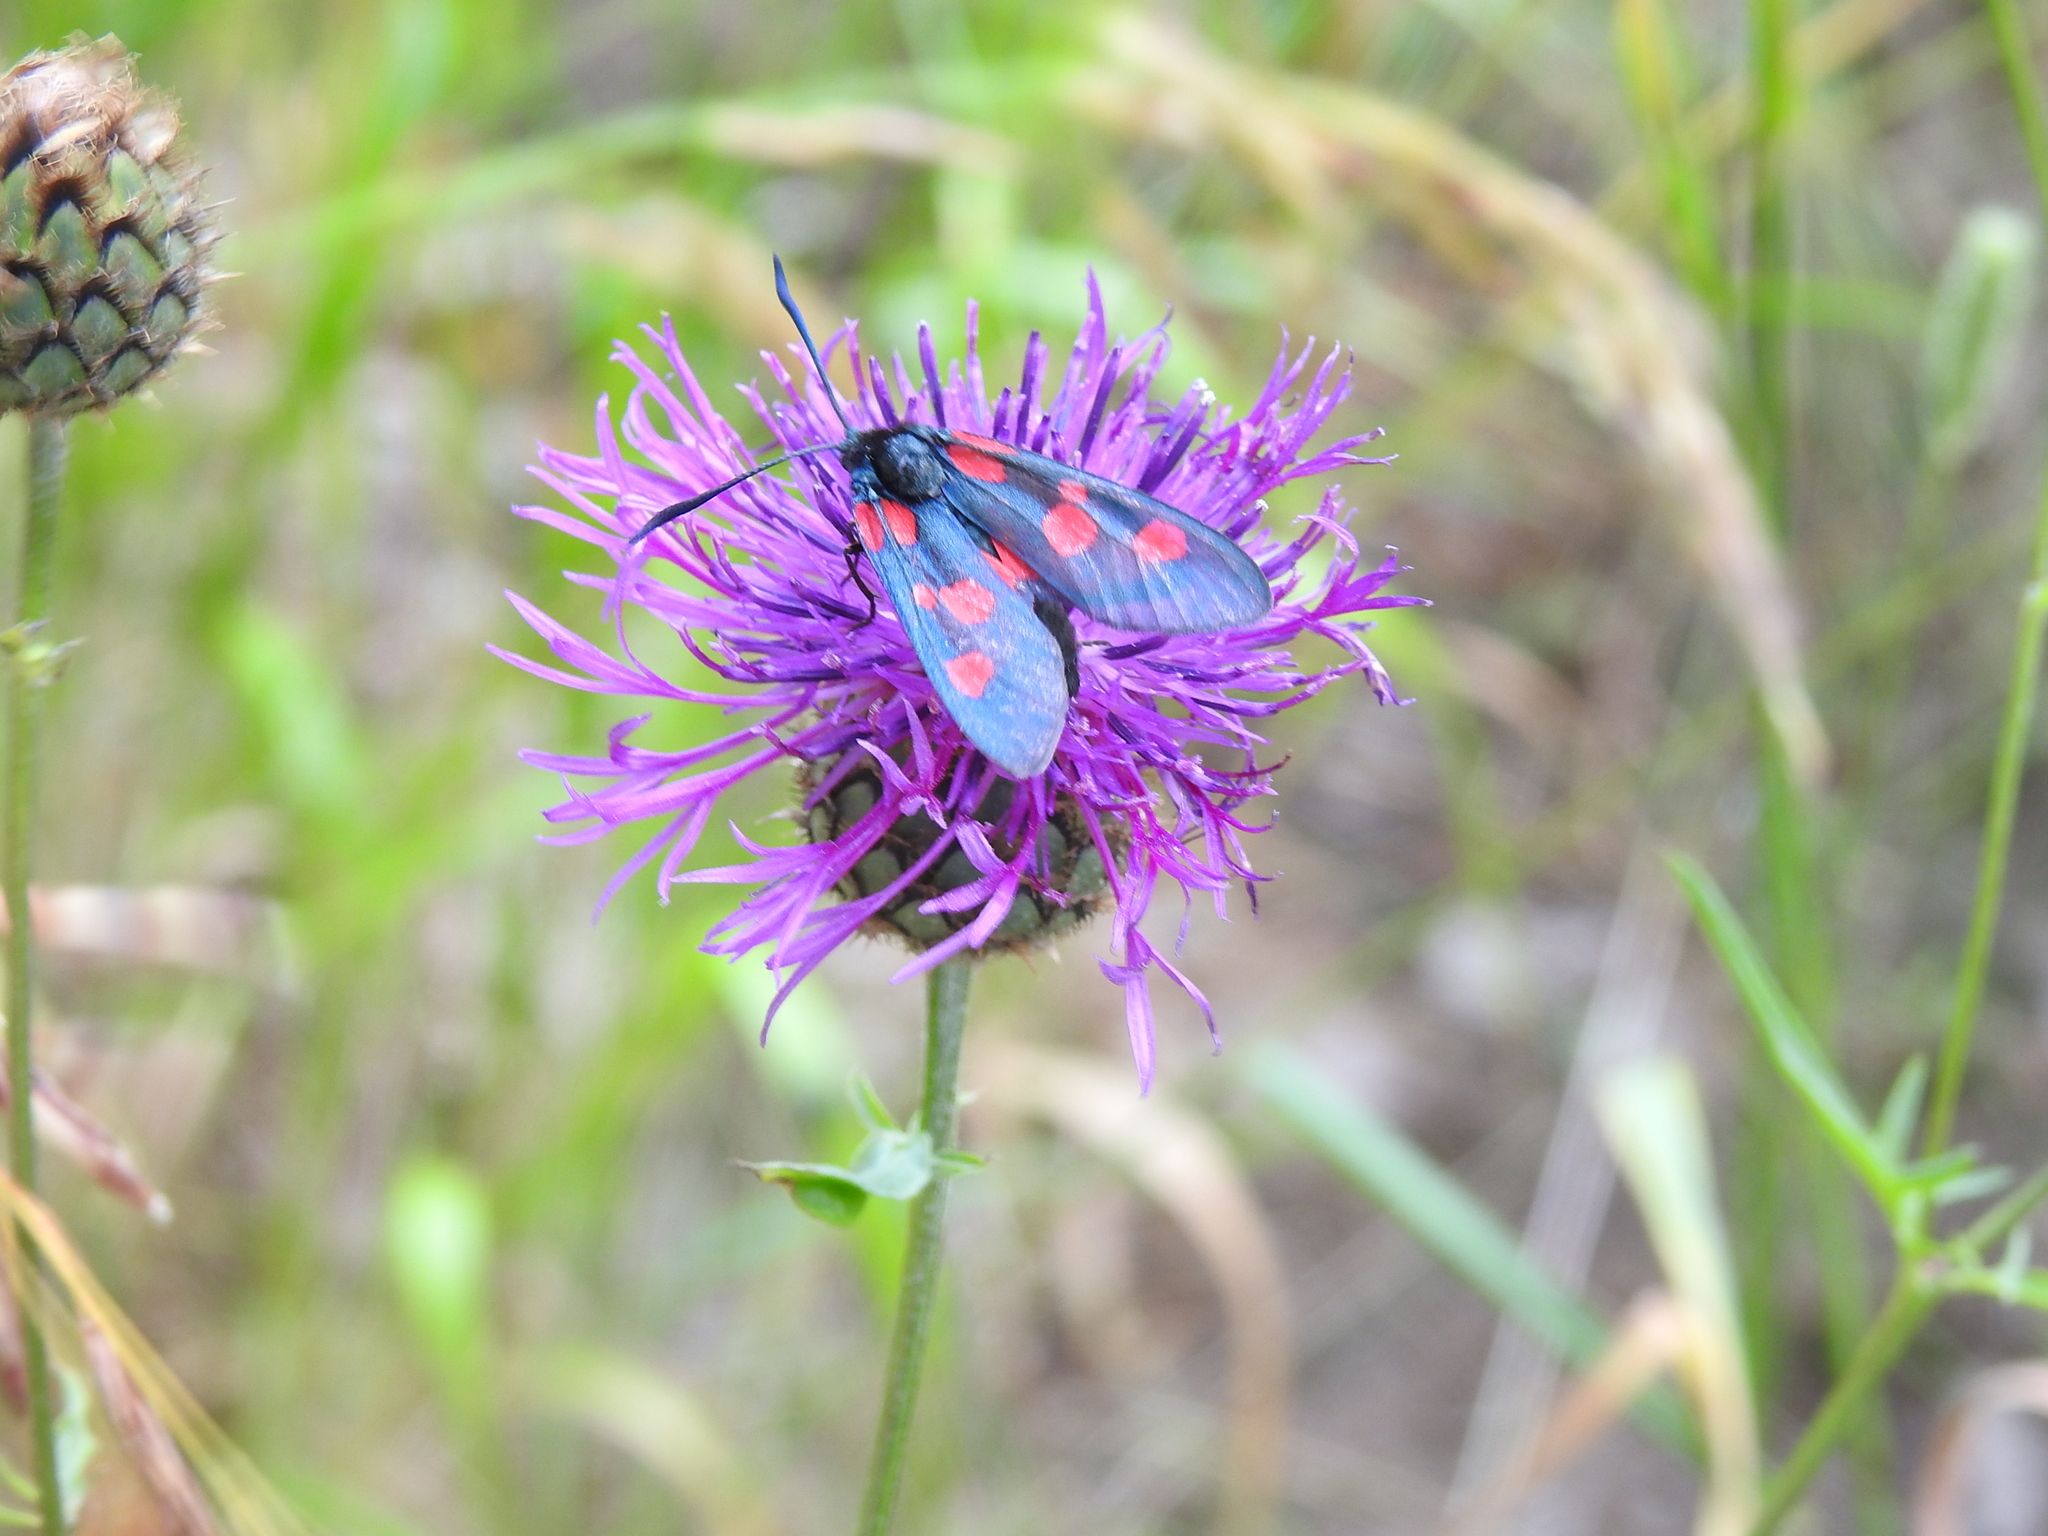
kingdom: Animalia
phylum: Arthropoda
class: Insecta
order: Lepidoptera
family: Zygaenidae
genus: Zygaena
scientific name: Zygaena lonicerae
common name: Narrow-bordered five-spot burnet
